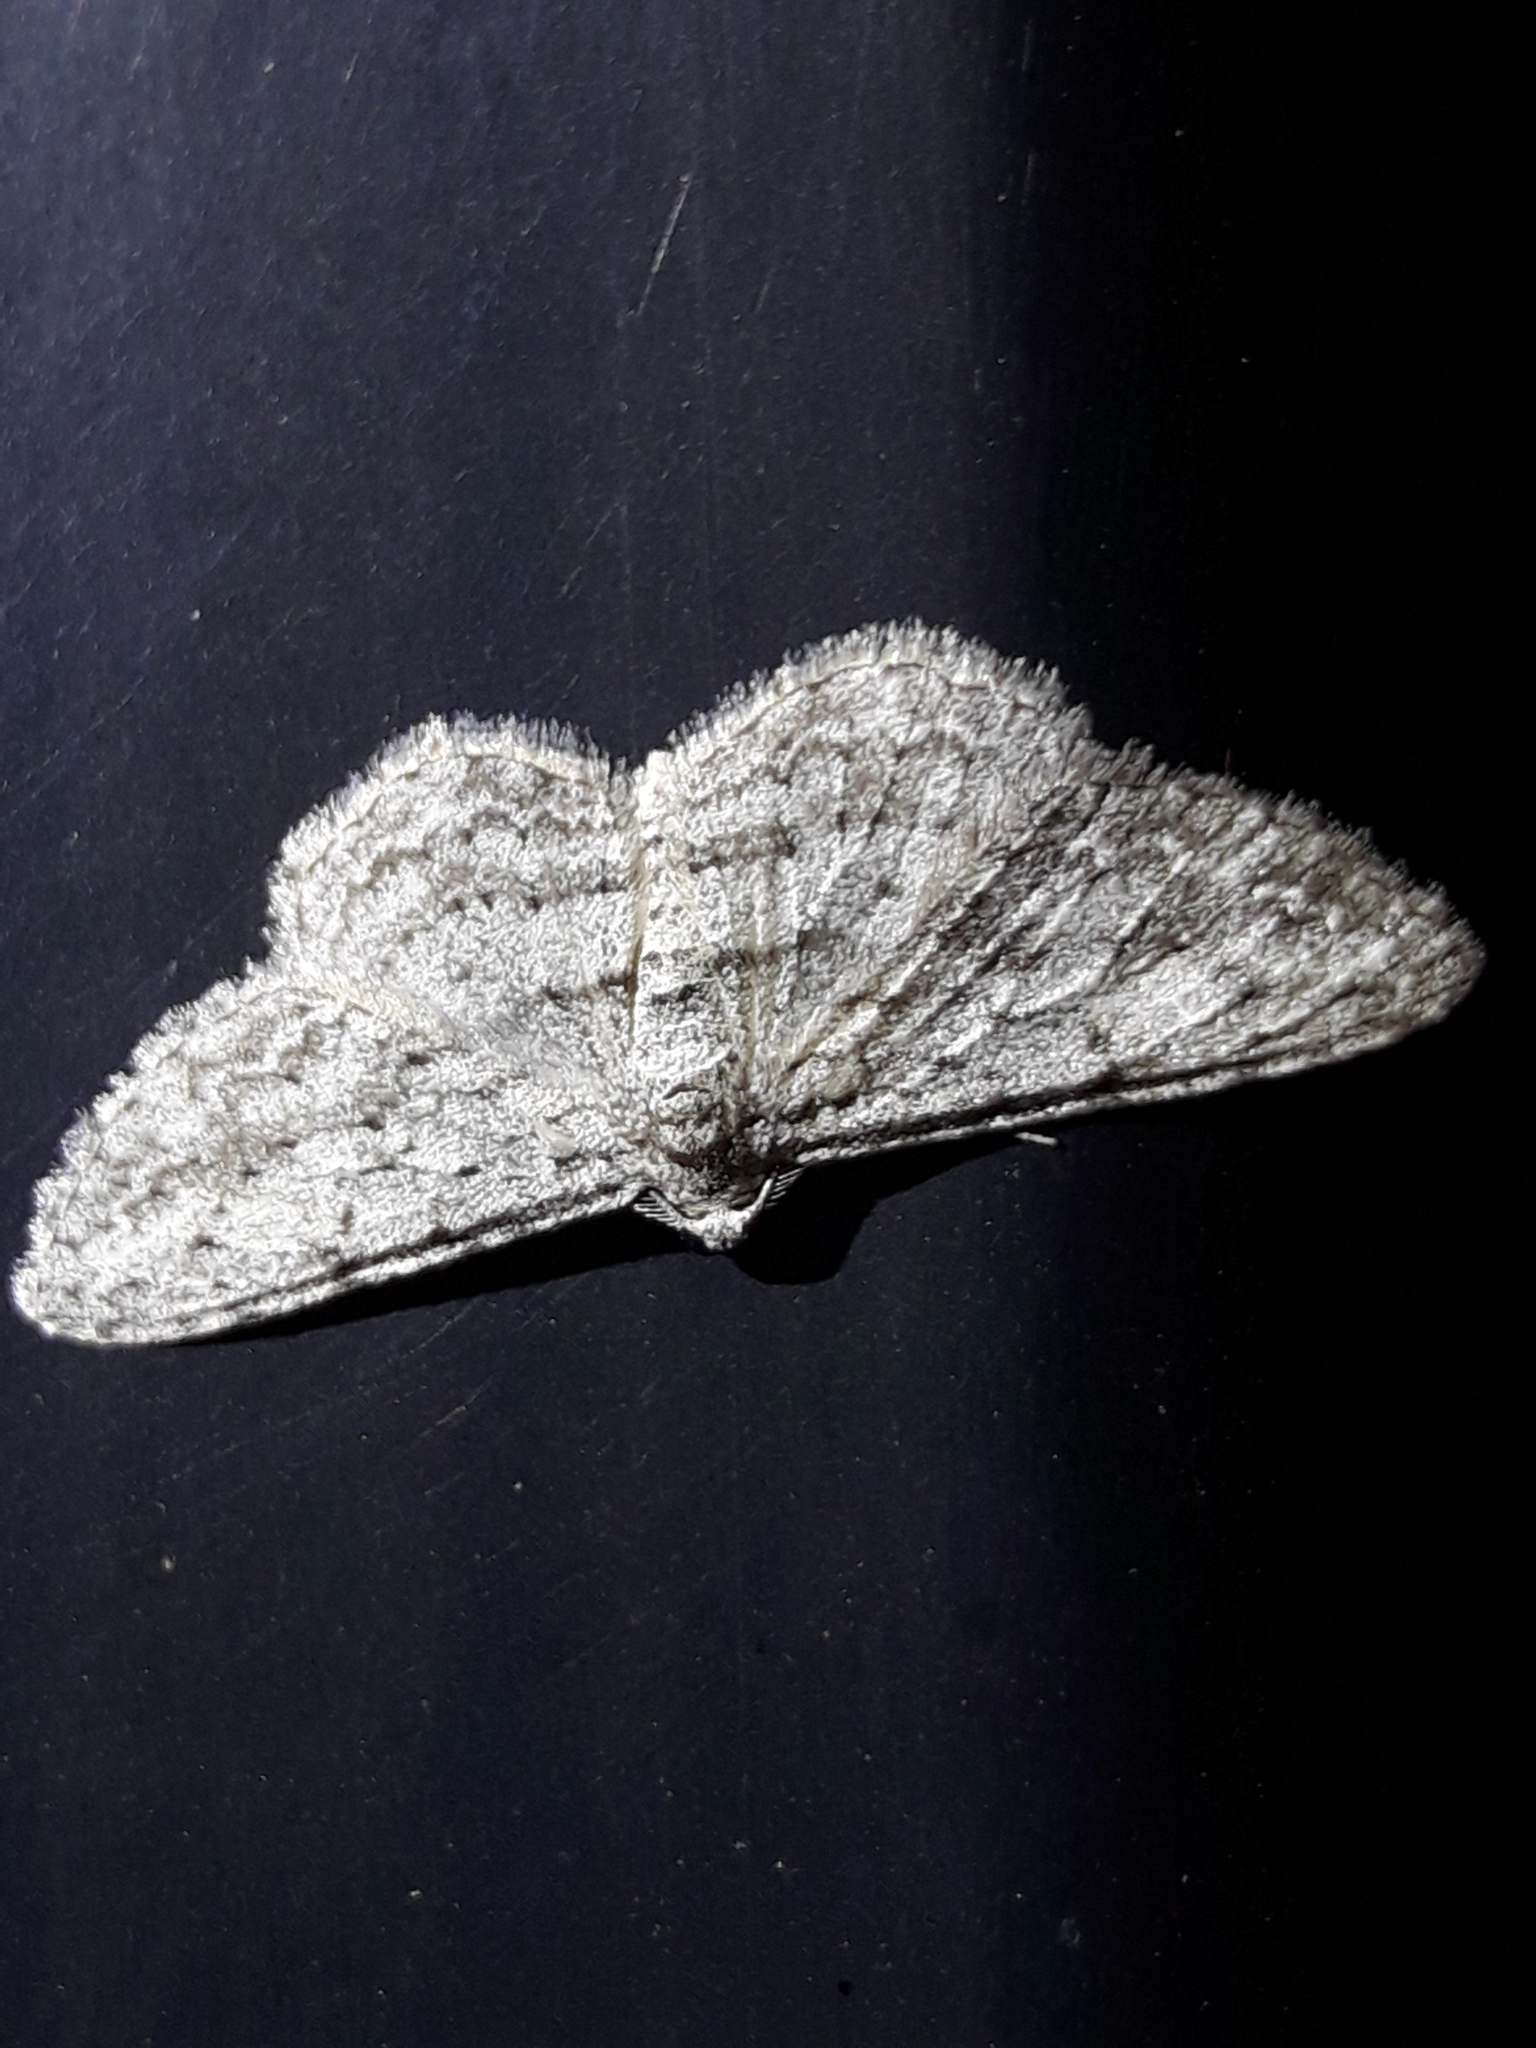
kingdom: Animalia
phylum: Arthropoda
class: Insecta
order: Lepidoptera
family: Geometridae
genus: Phelotis
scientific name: Phelotis cognata
